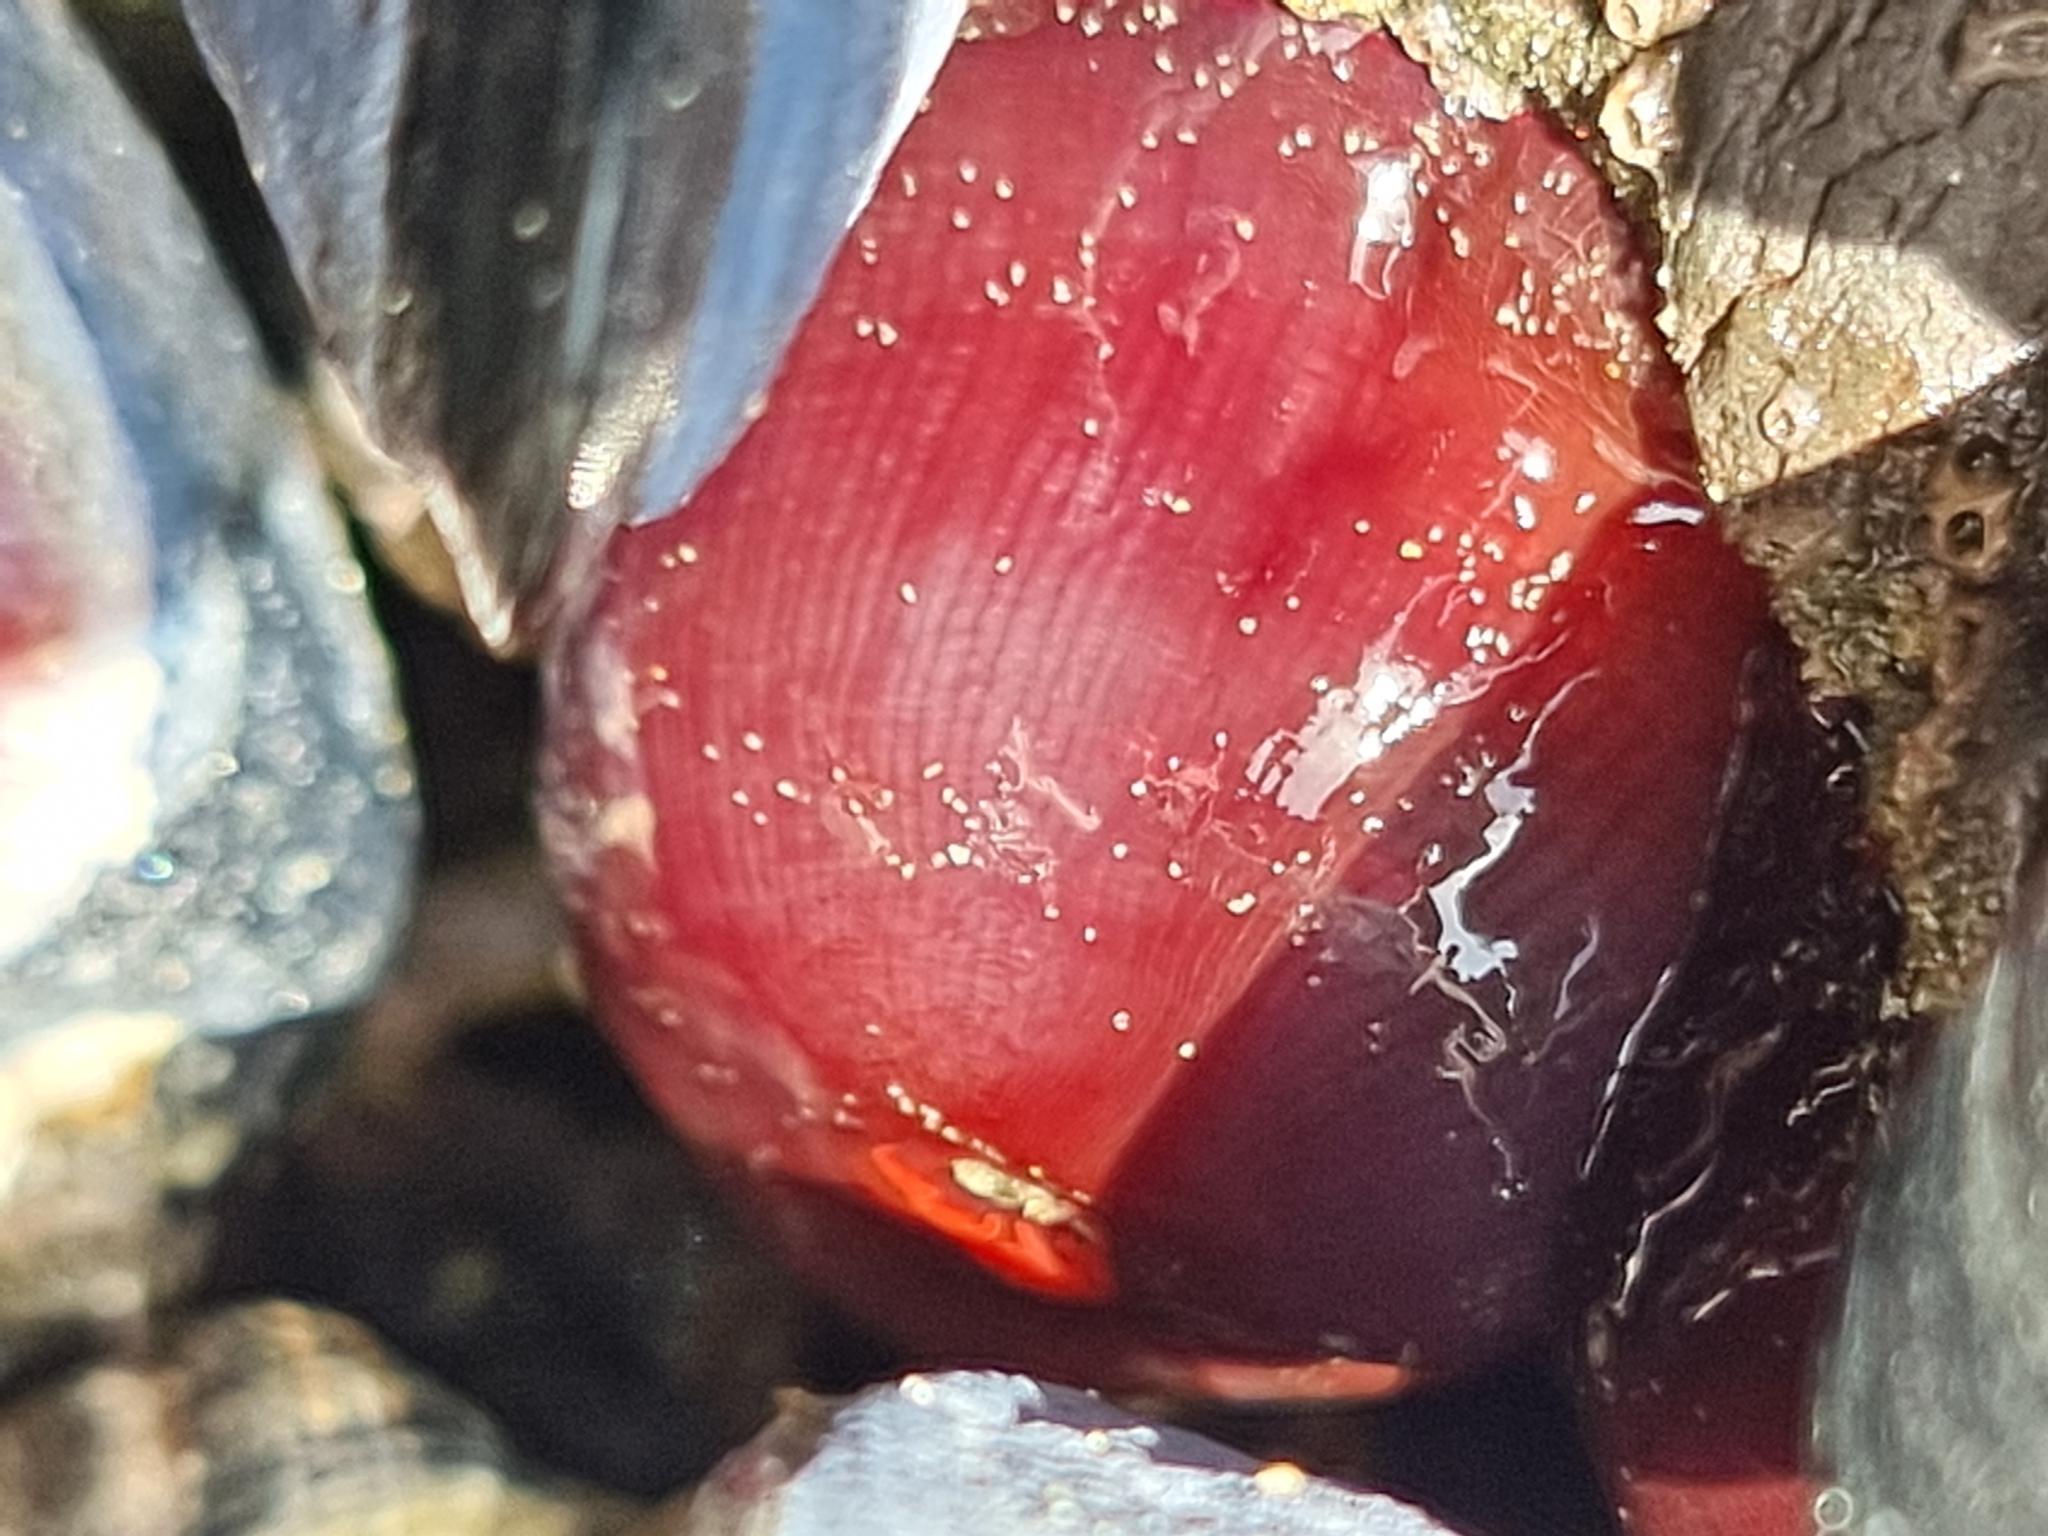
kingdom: Animalia
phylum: Cnidaria
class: Anthozoa
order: Actiniaria
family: Actiniidae
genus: Actinia
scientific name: Actinia tenebrosa
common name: Waratah anemone
